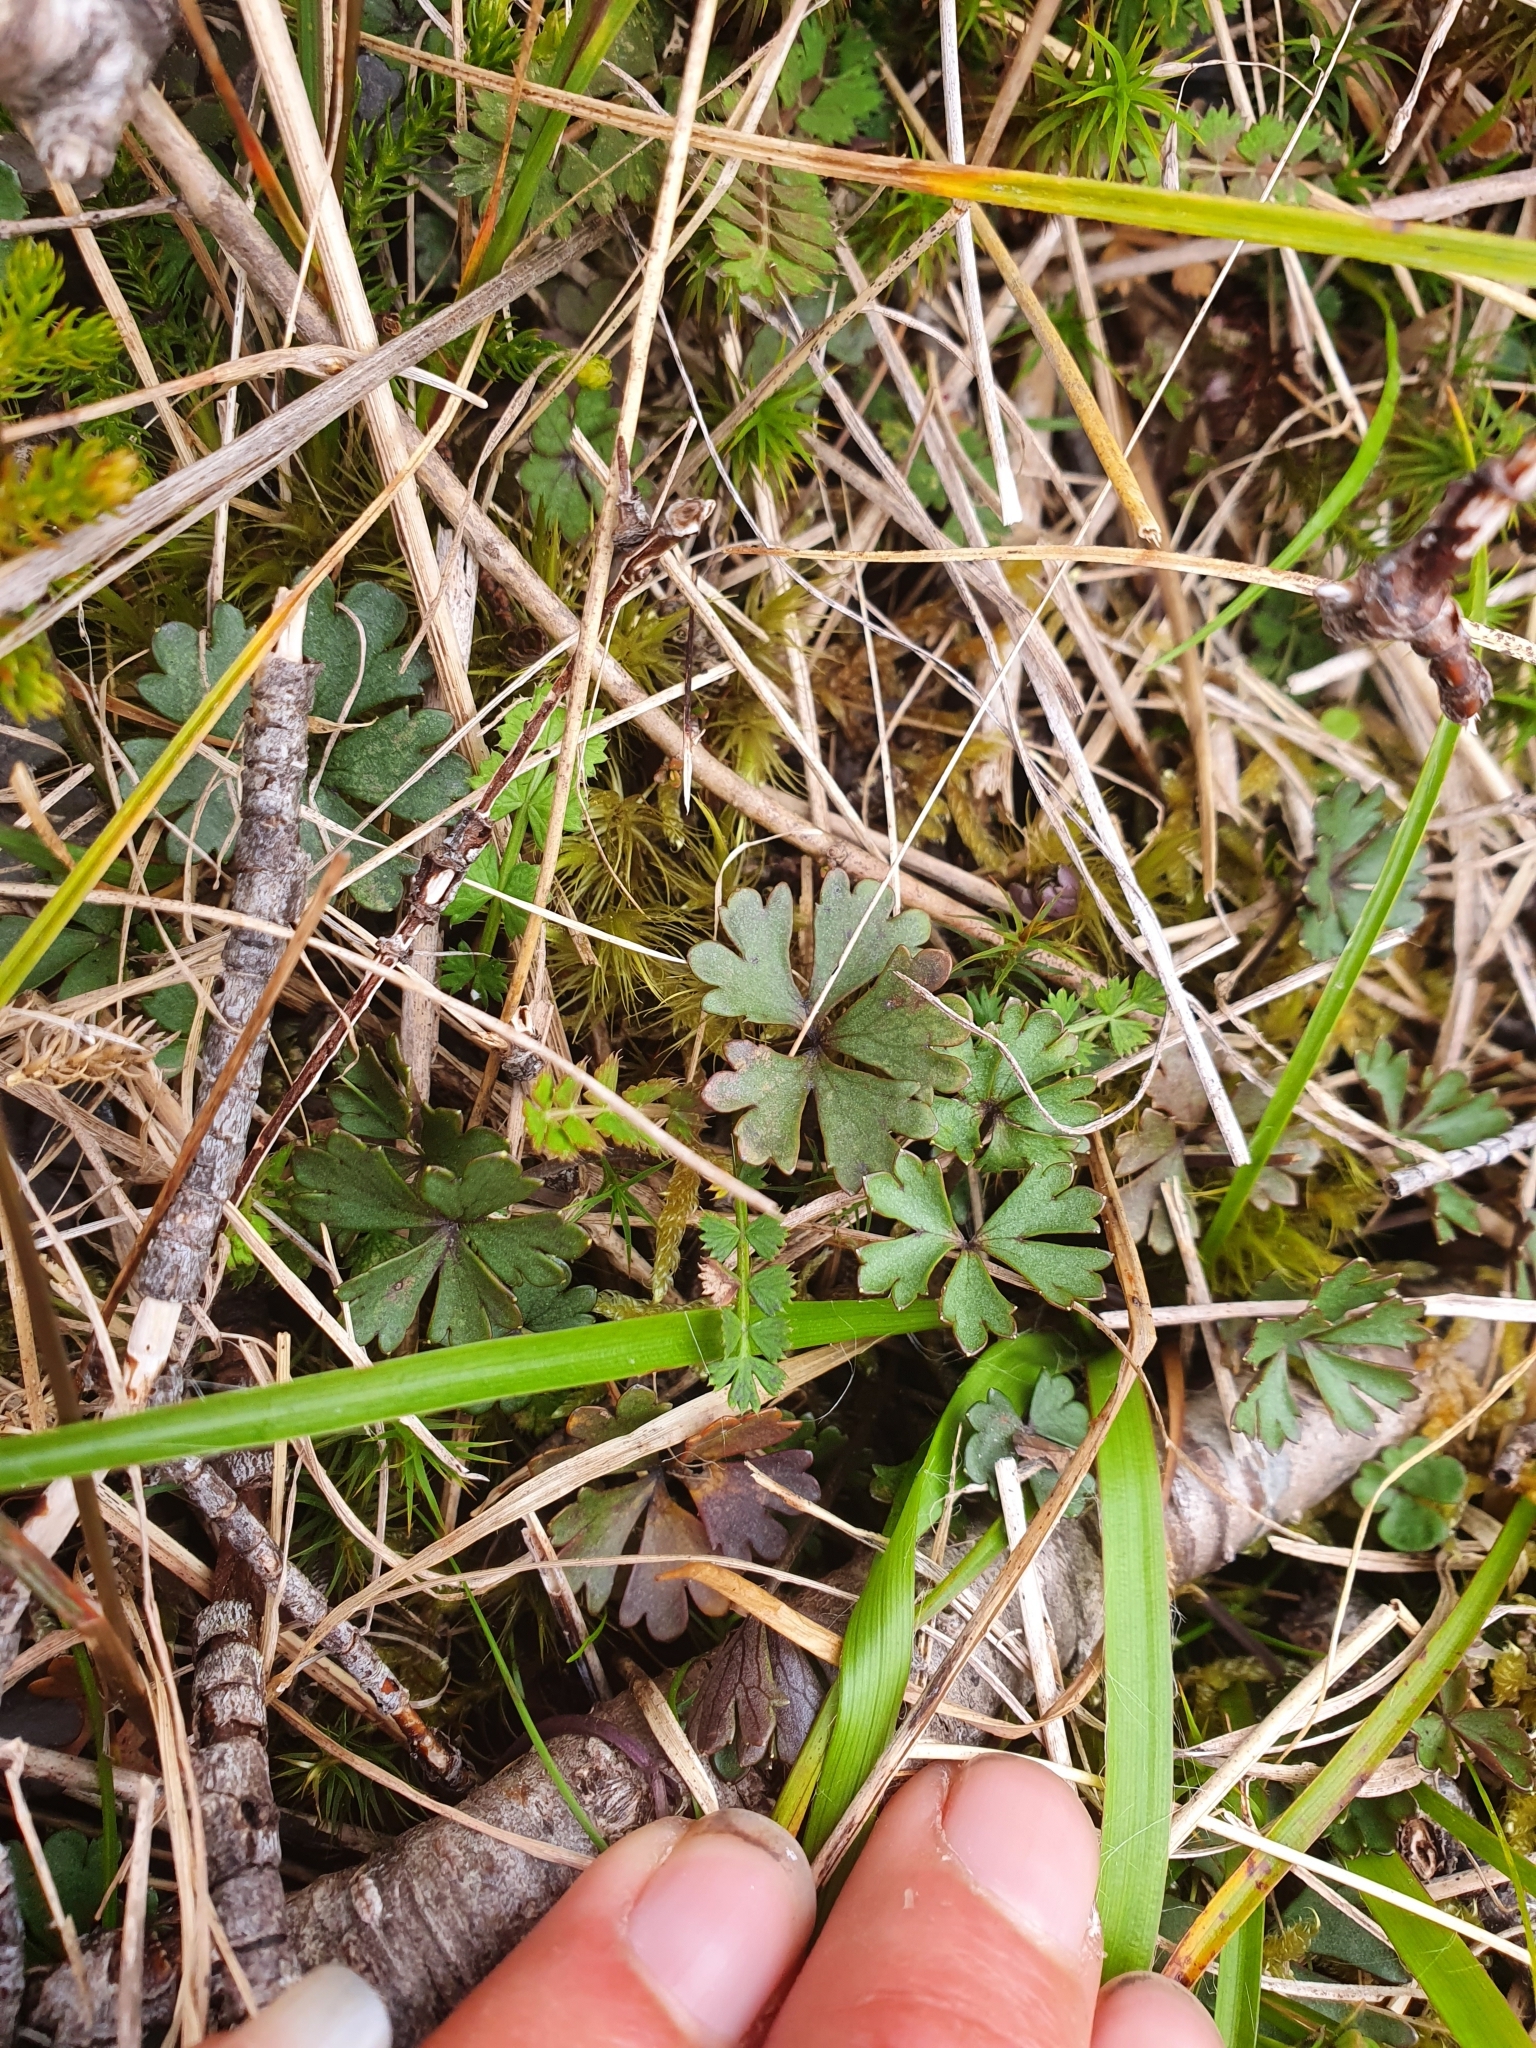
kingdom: Plantae
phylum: Tracheophyta
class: Magnoliopsida
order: Ranunculales
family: Ranunculaceae
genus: Ranunculus
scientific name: Ranunculus verticillatus
